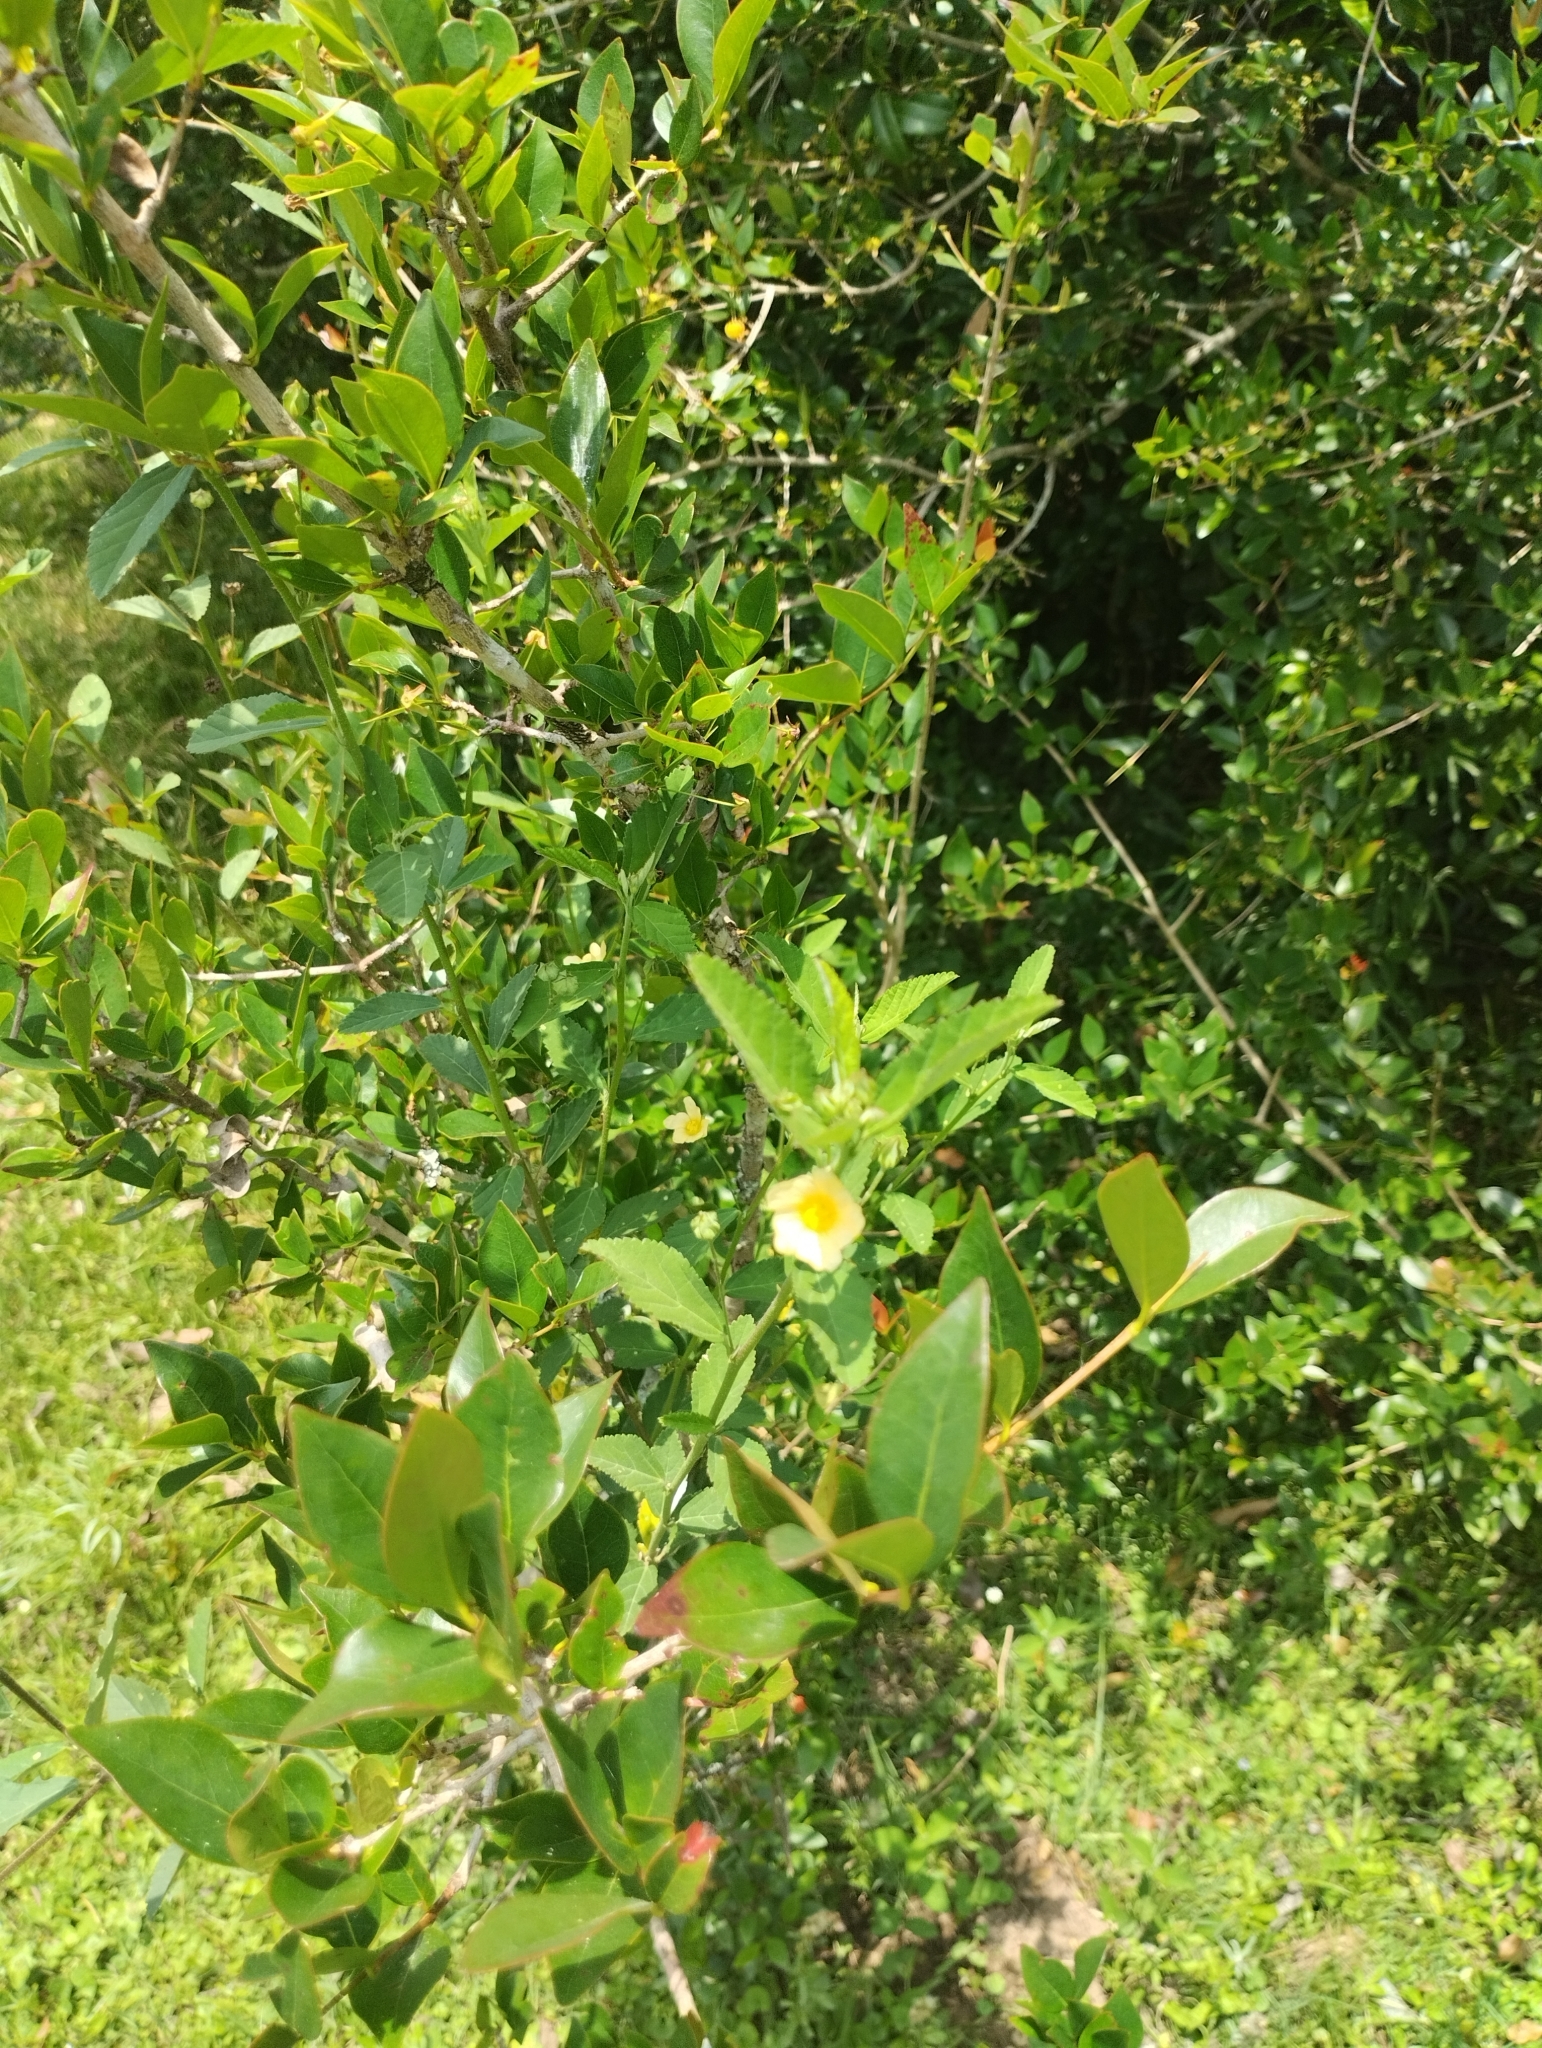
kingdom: Plantae
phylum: Tracheophyta
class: Magnoliopsida
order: Myrtales
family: Myrtaceae
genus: Psidium
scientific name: Psidium cattleianum
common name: Strawberry guava
